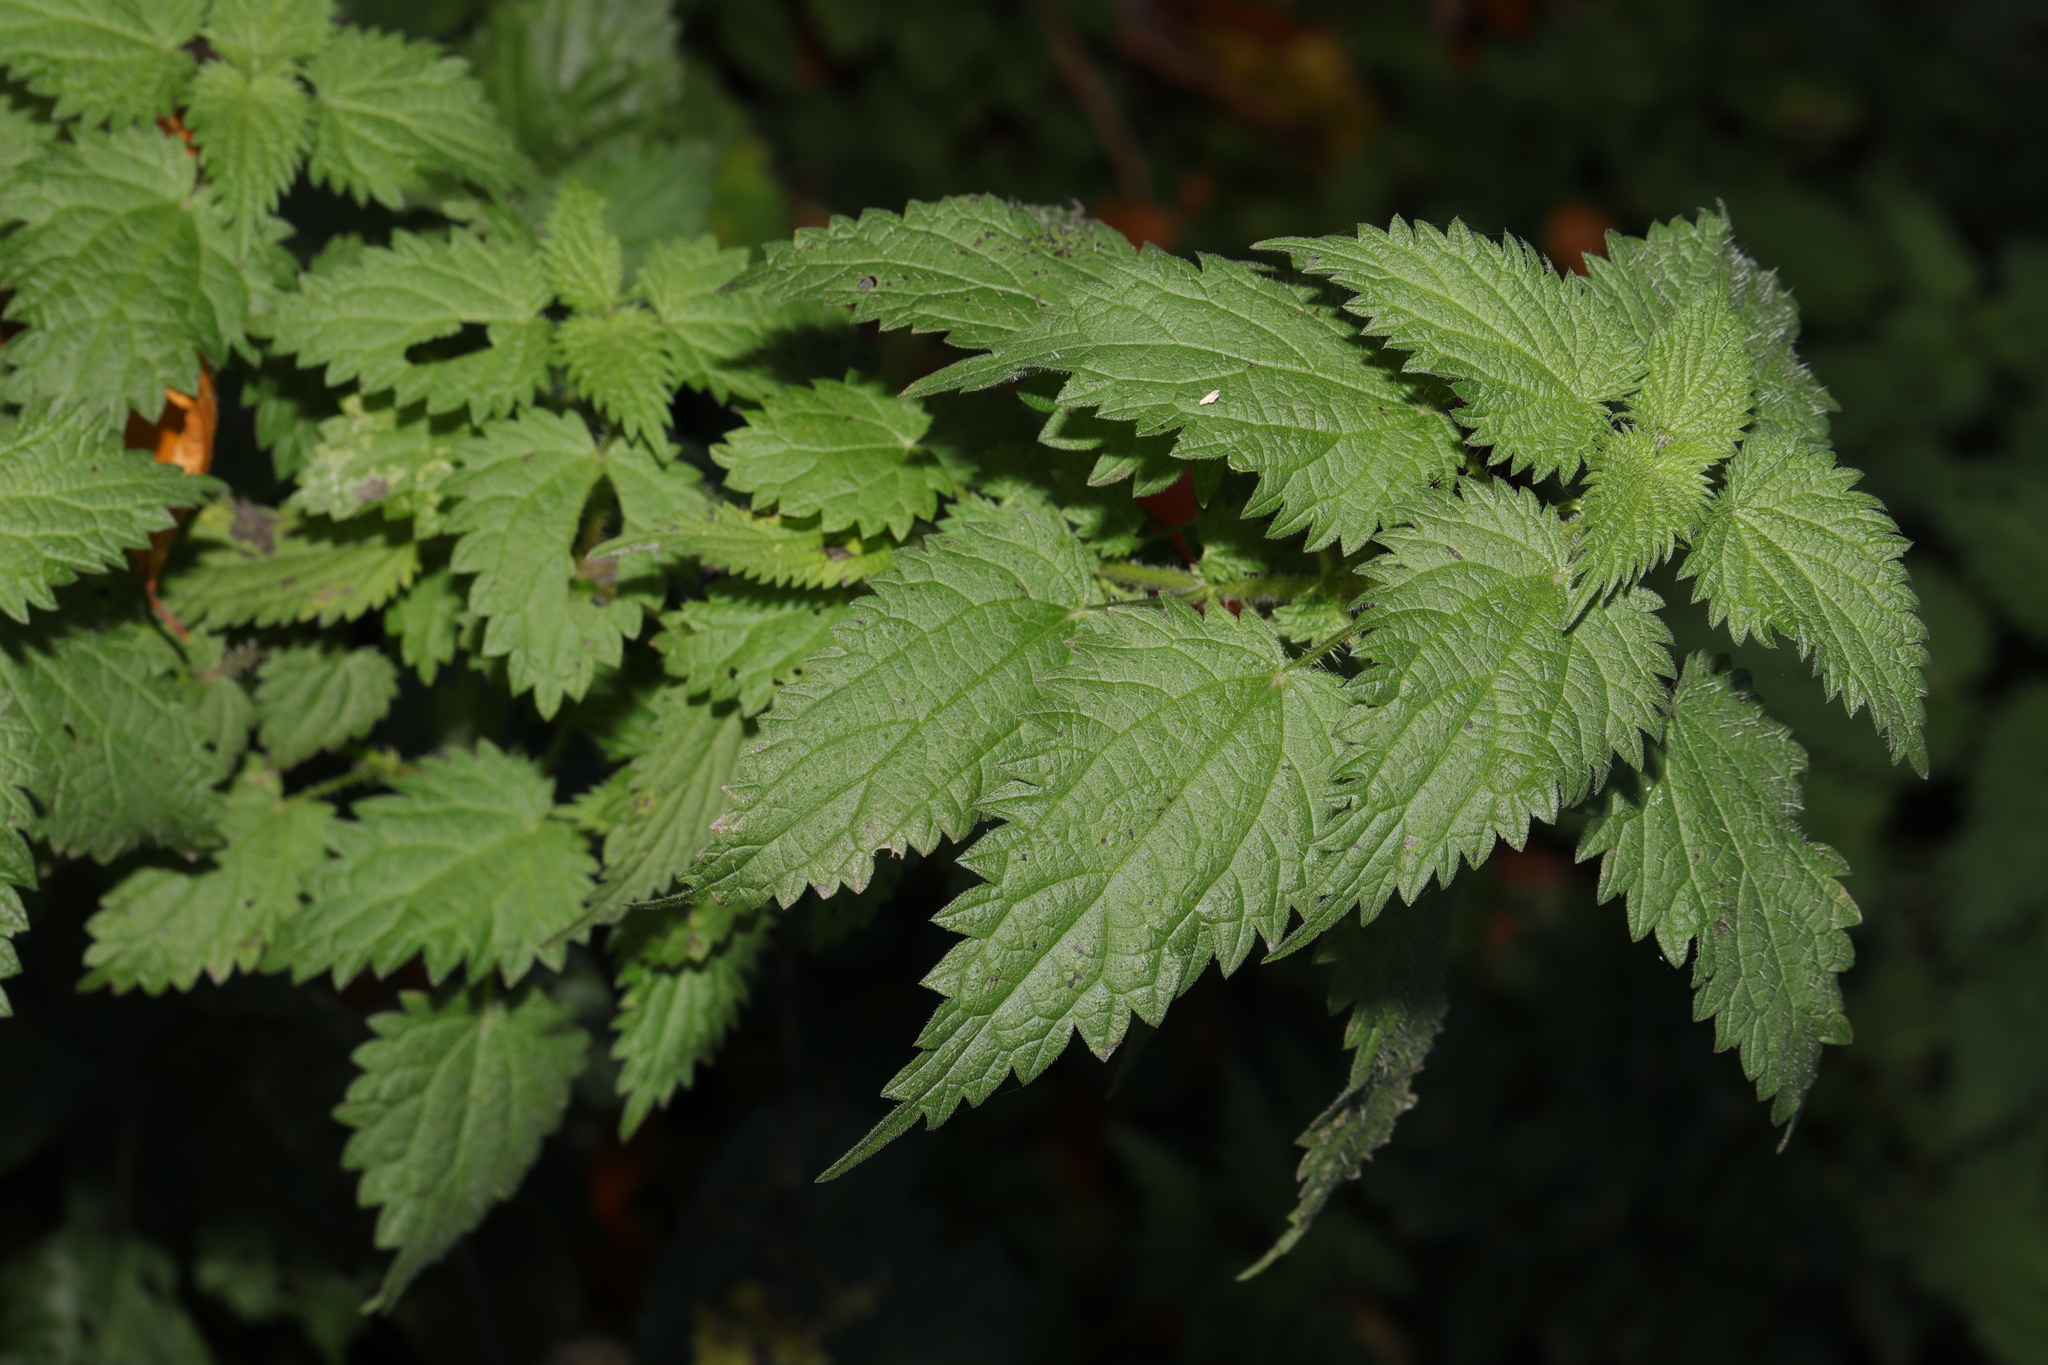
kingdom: Plantae
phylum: Tracheophyta
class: Magnoliopsida
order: Rosales
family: Urticaceae
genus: Urtica
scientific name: Urtica dioica
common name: Common nettle
